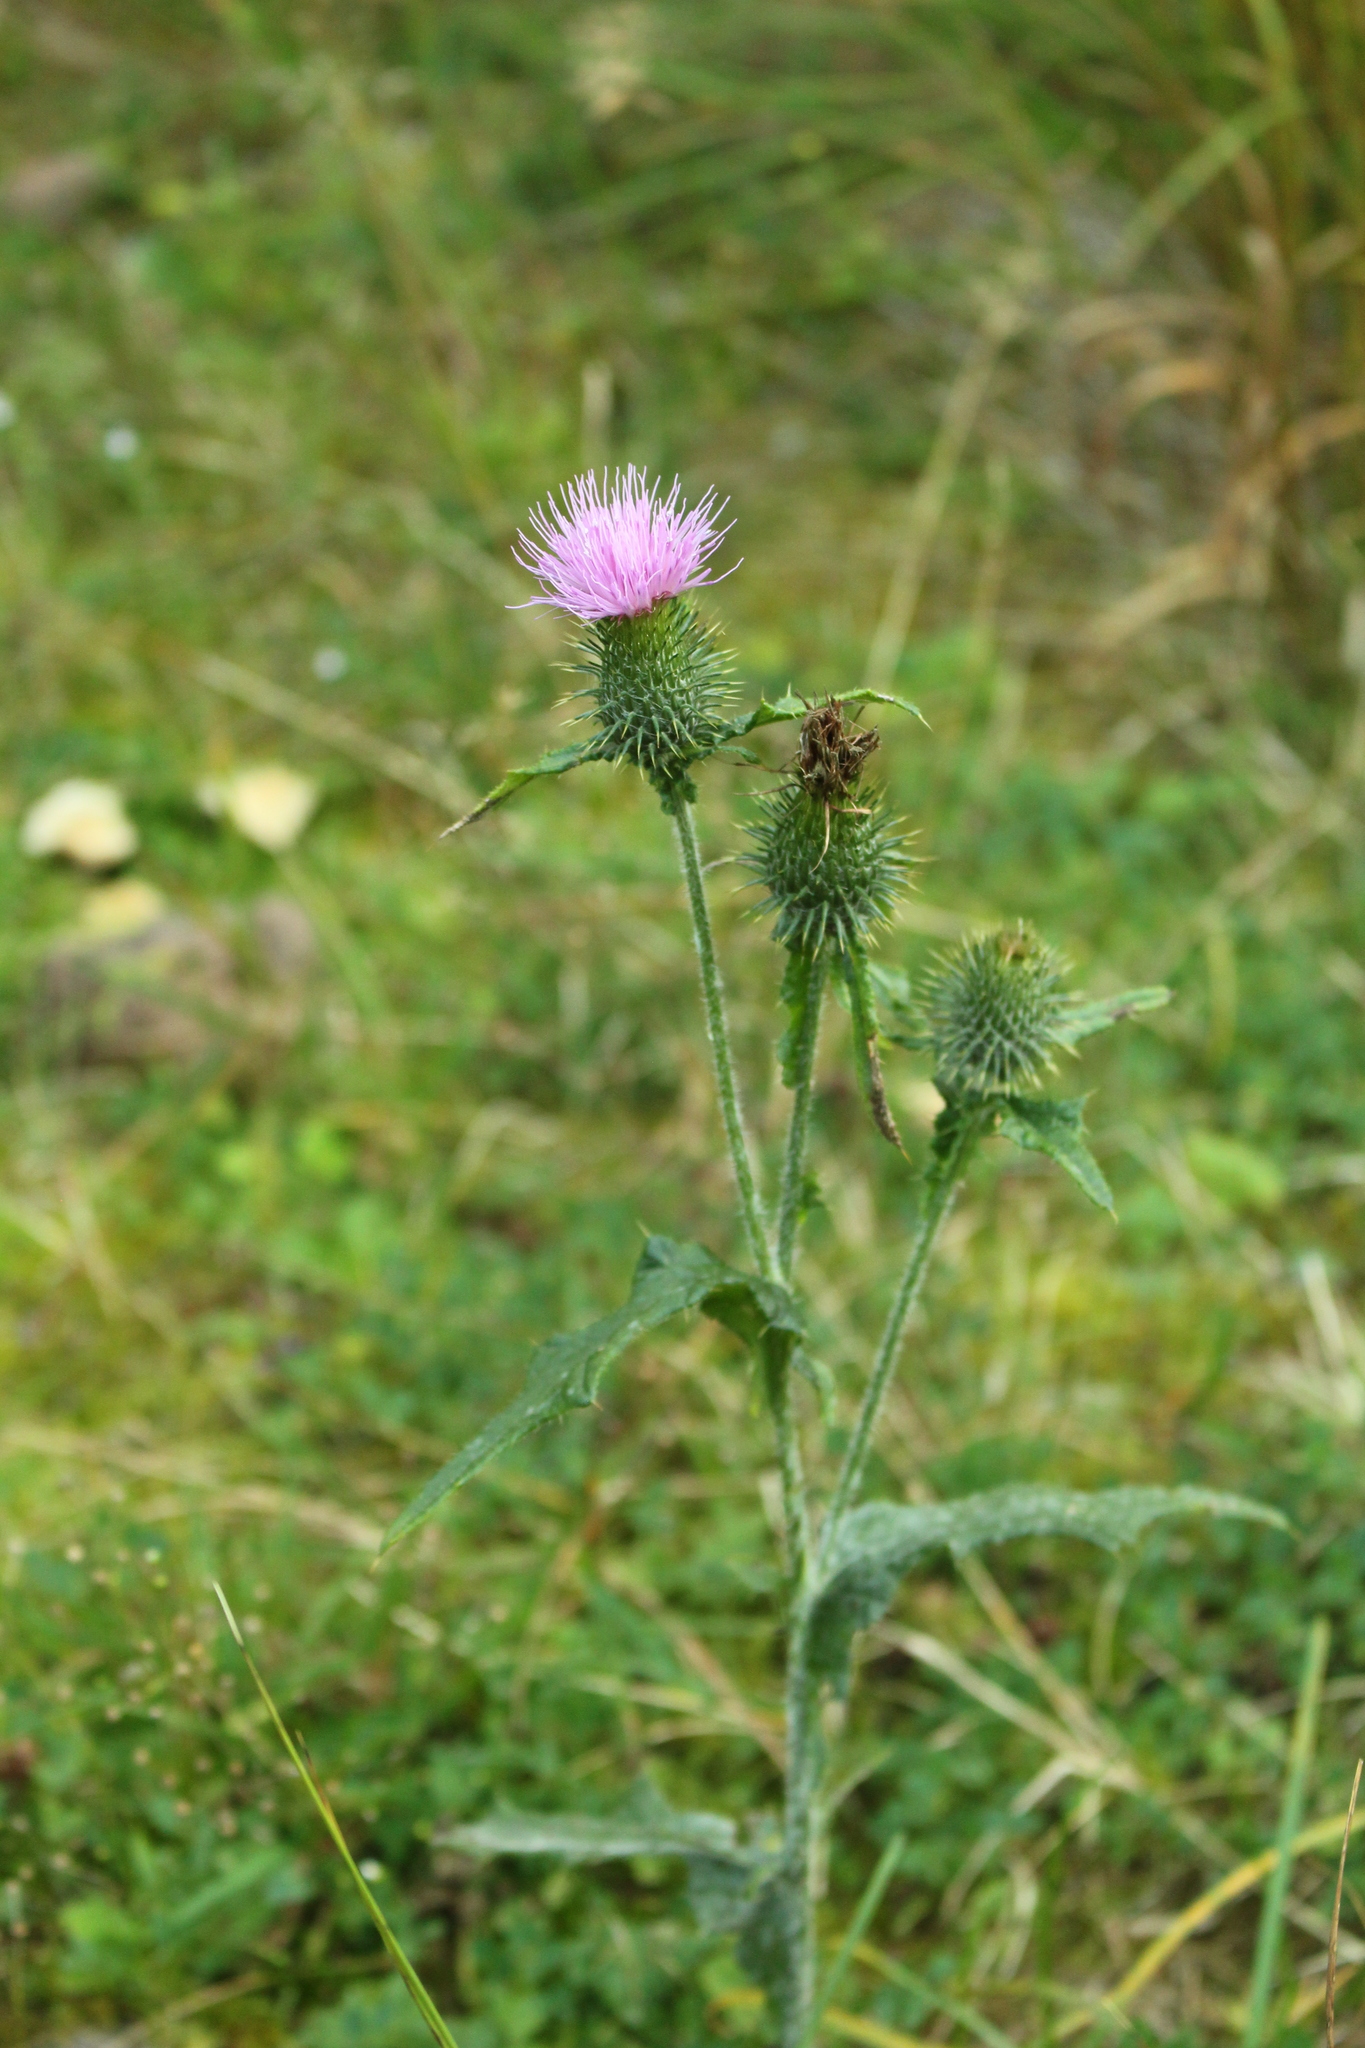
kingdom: Plantae
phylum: Tracheophyta
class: Magnoliopsida
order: Asterales
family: Asteraceae
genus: Cirsium
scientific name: Cirsium vulgare
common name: Bull thistle
